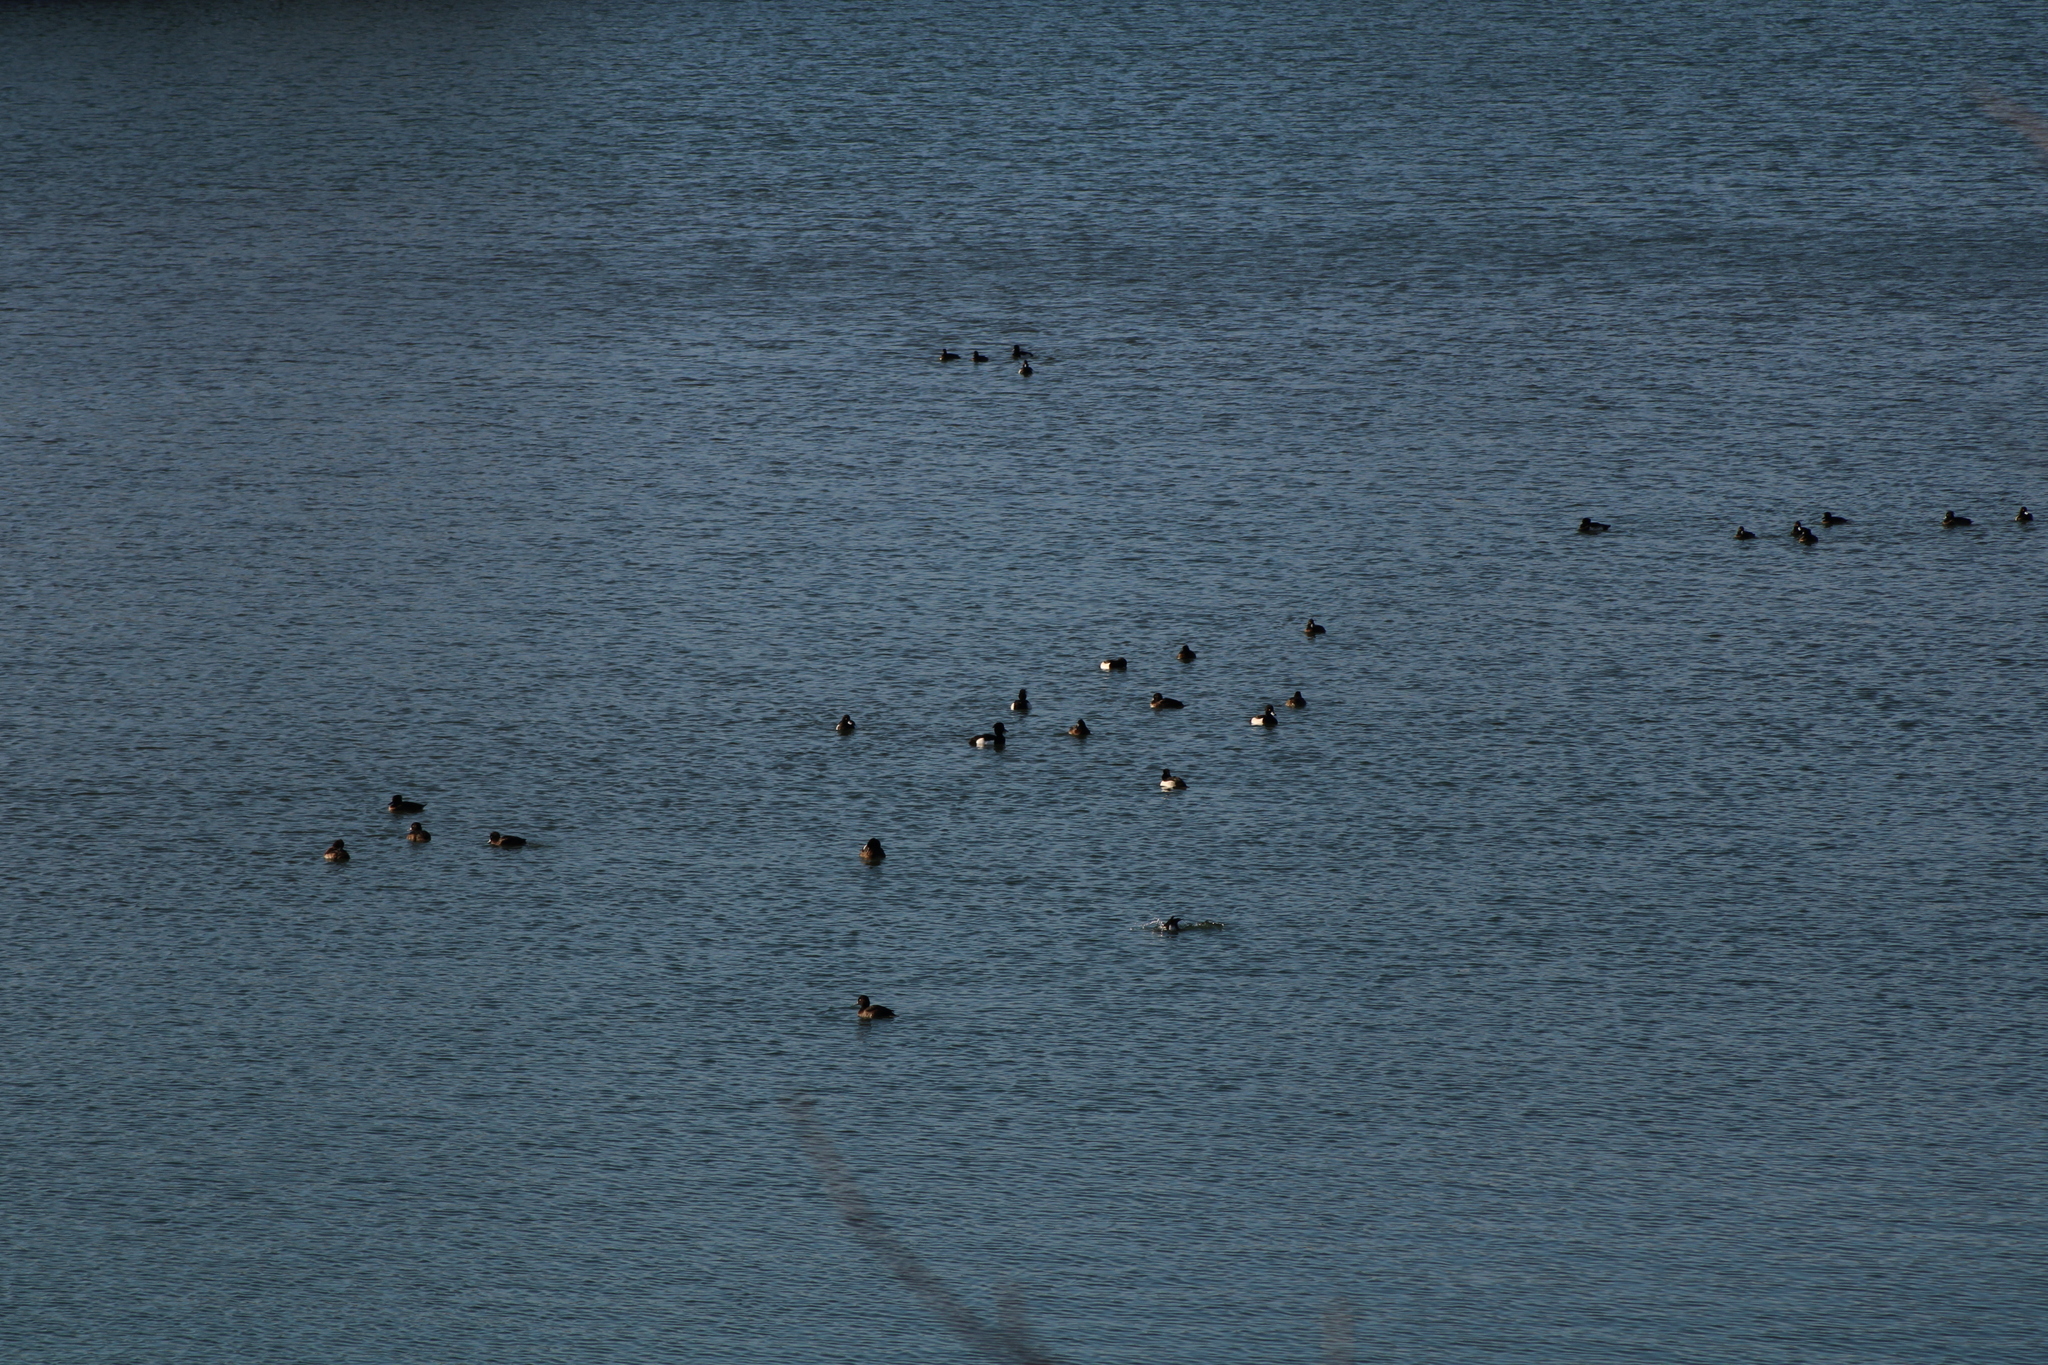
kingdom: Animalia
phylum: Chordata
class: Aves
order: Anseriformes
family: Anatidae
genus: Aythya
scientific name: Aythya fuligula
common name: Tufted duck
